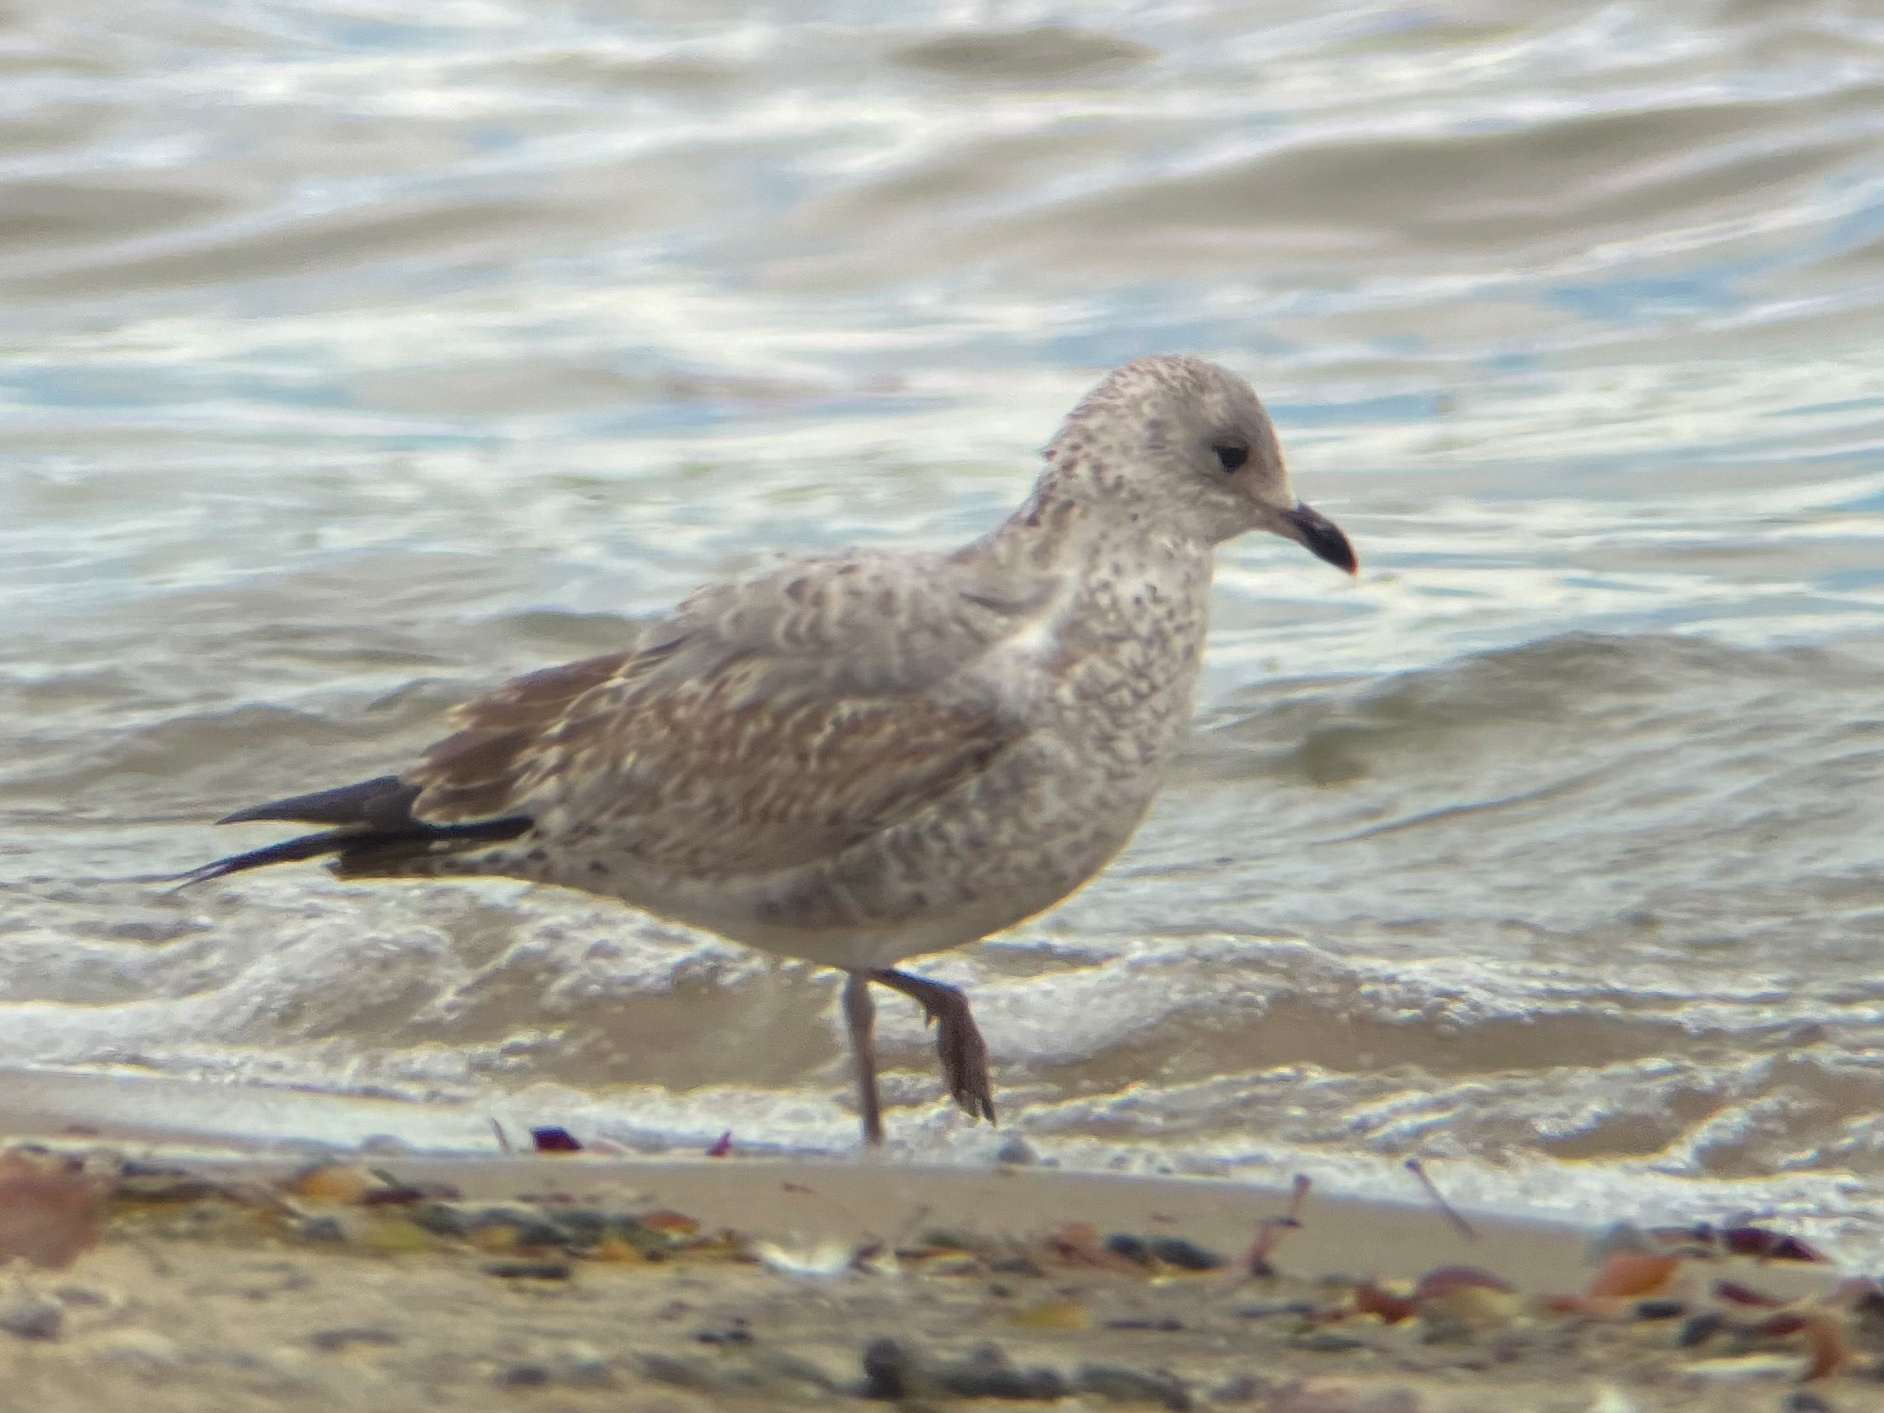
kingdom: Animalia
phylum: Chordata
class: Aves
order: Charadriiformes
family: Laridae
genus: Larus
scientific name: Larus delawarensis
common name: Ring-billed gull
